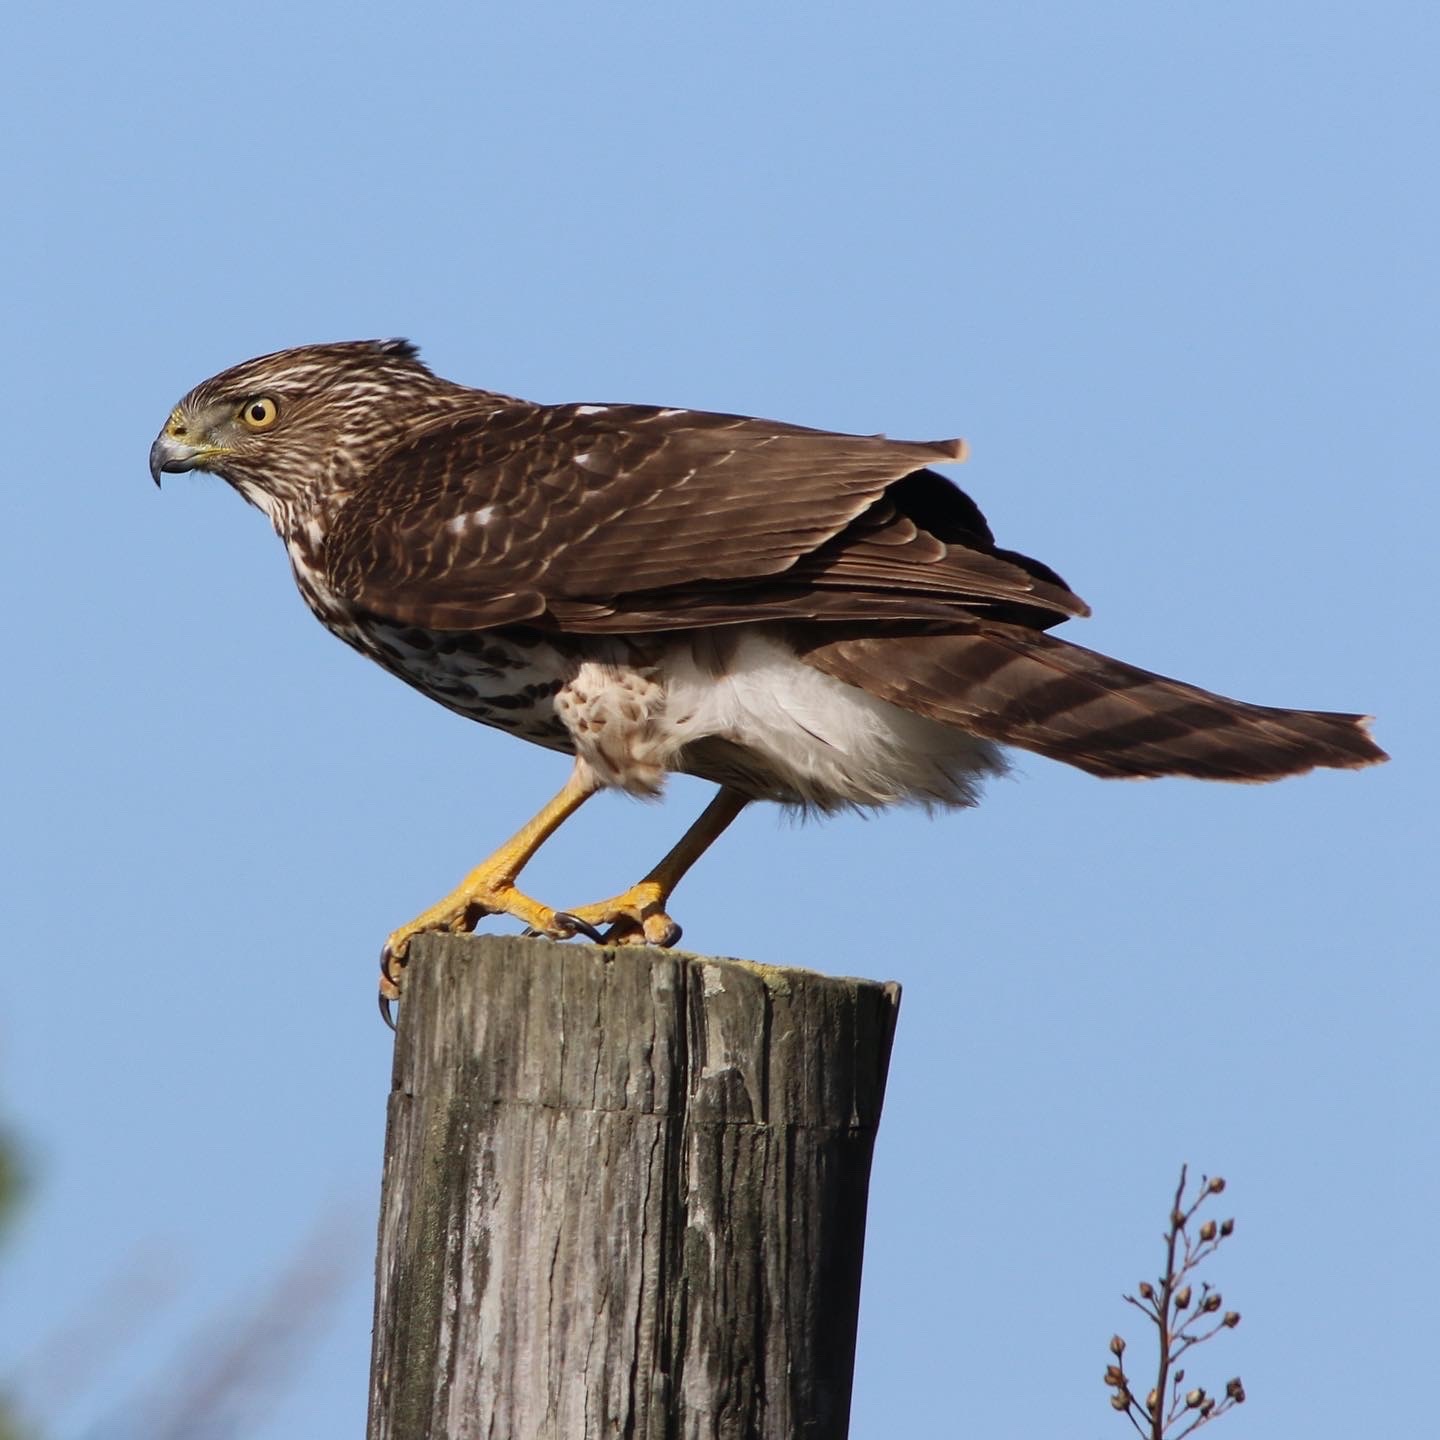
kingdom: Animalia
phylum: Chordata
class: Aves
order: Accipitriformes
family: Accipitridae
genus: Accipiter
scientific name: Accipiter cooperii
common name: Cooper's hawk
